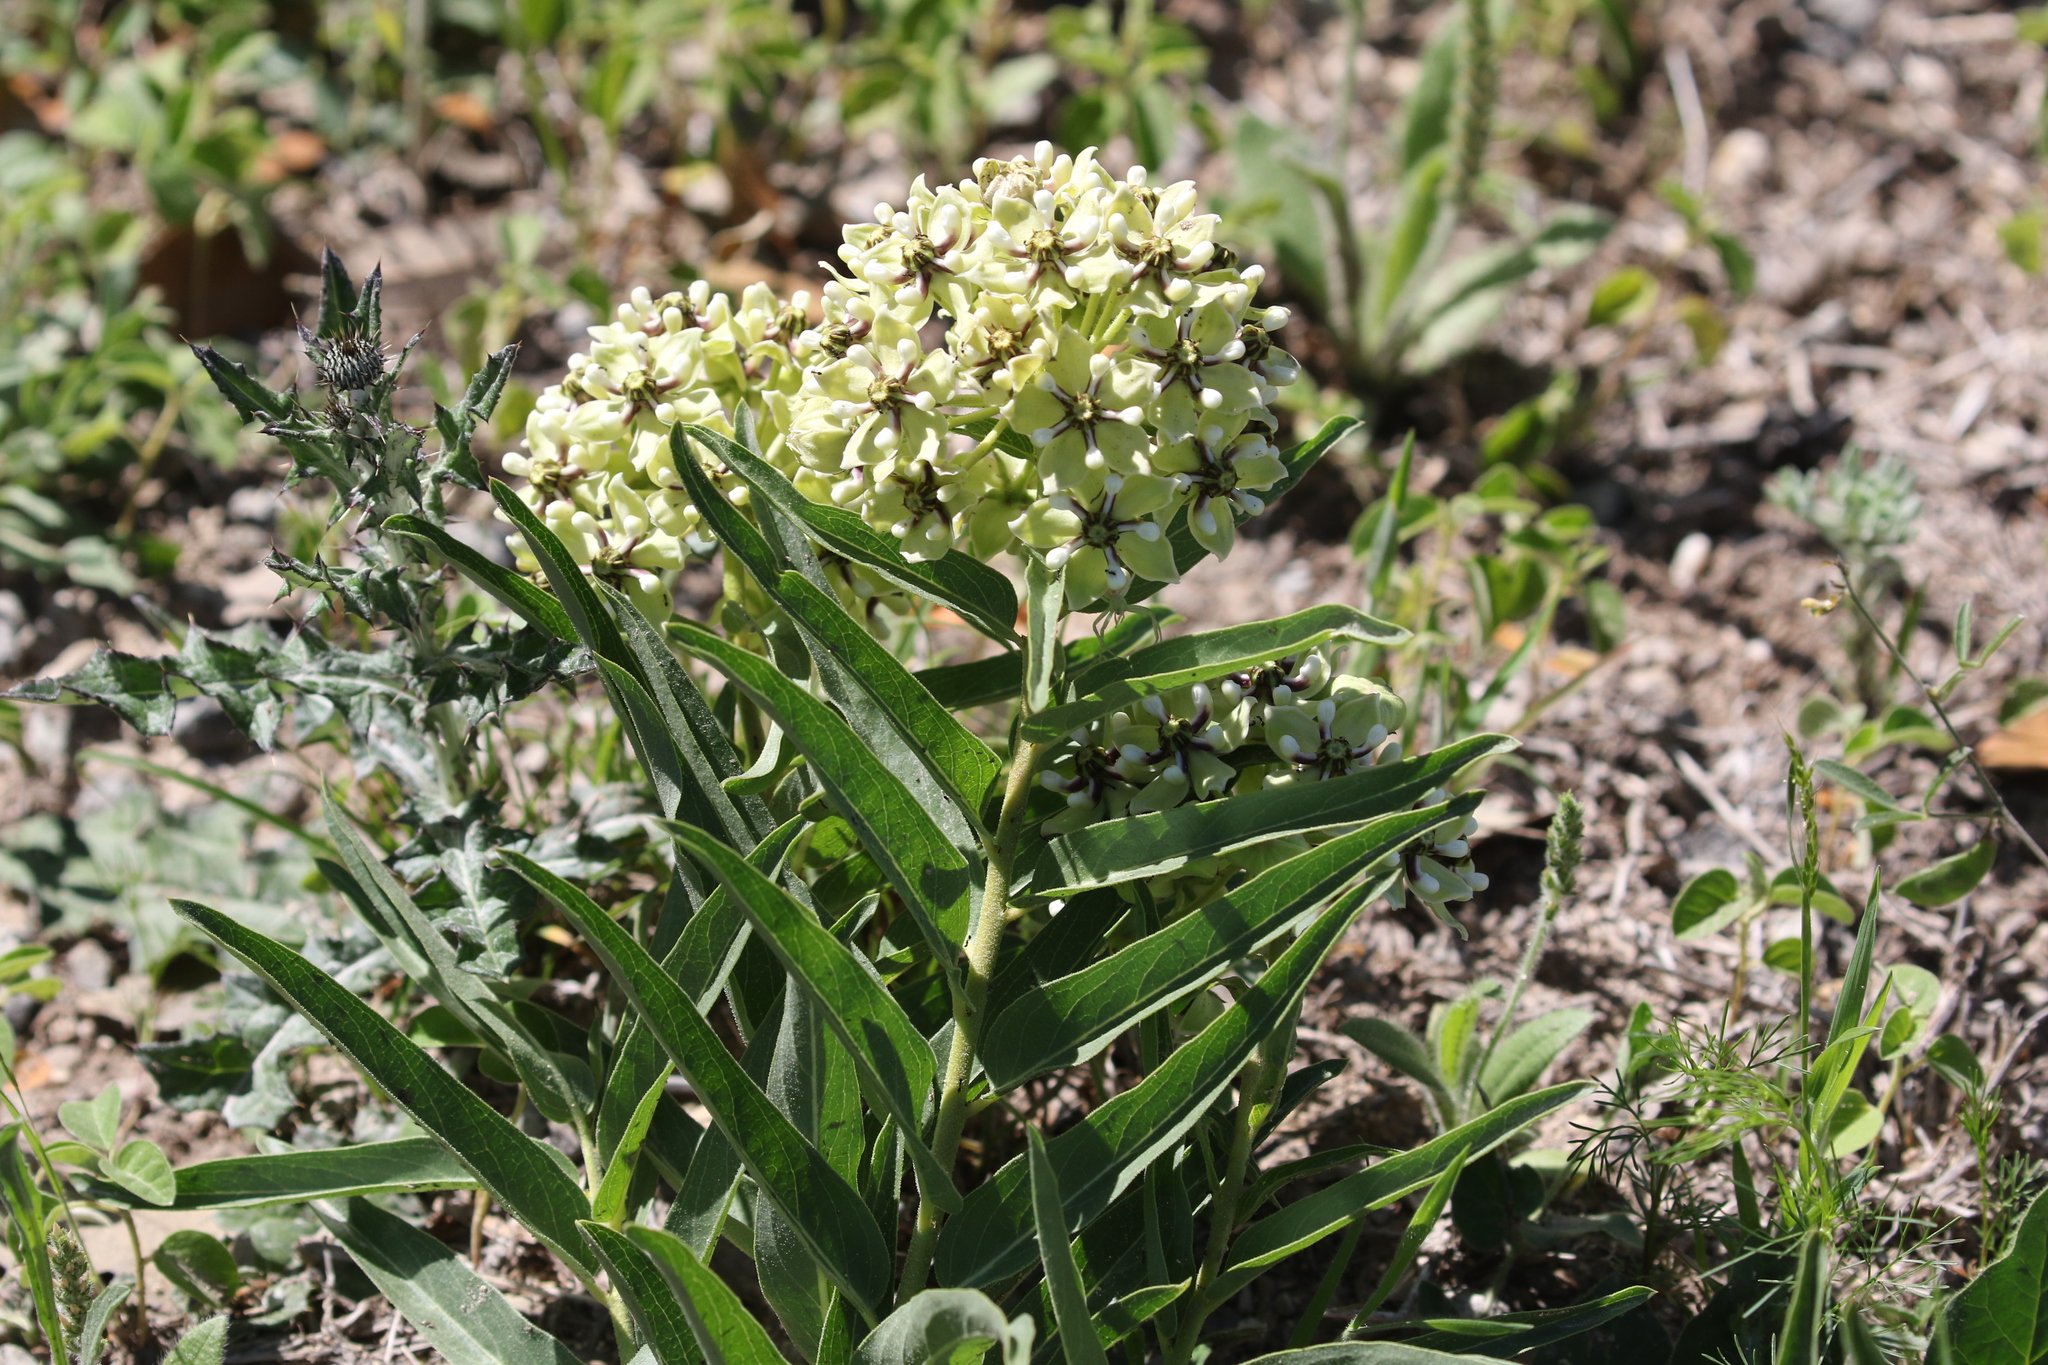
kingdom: Plantae
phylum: Tracheophyta
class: Magnoliopsida
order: Gentianales
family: Apocynaceae
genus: Asclepias
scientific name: Asclepias asperula
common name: Antelope horns
